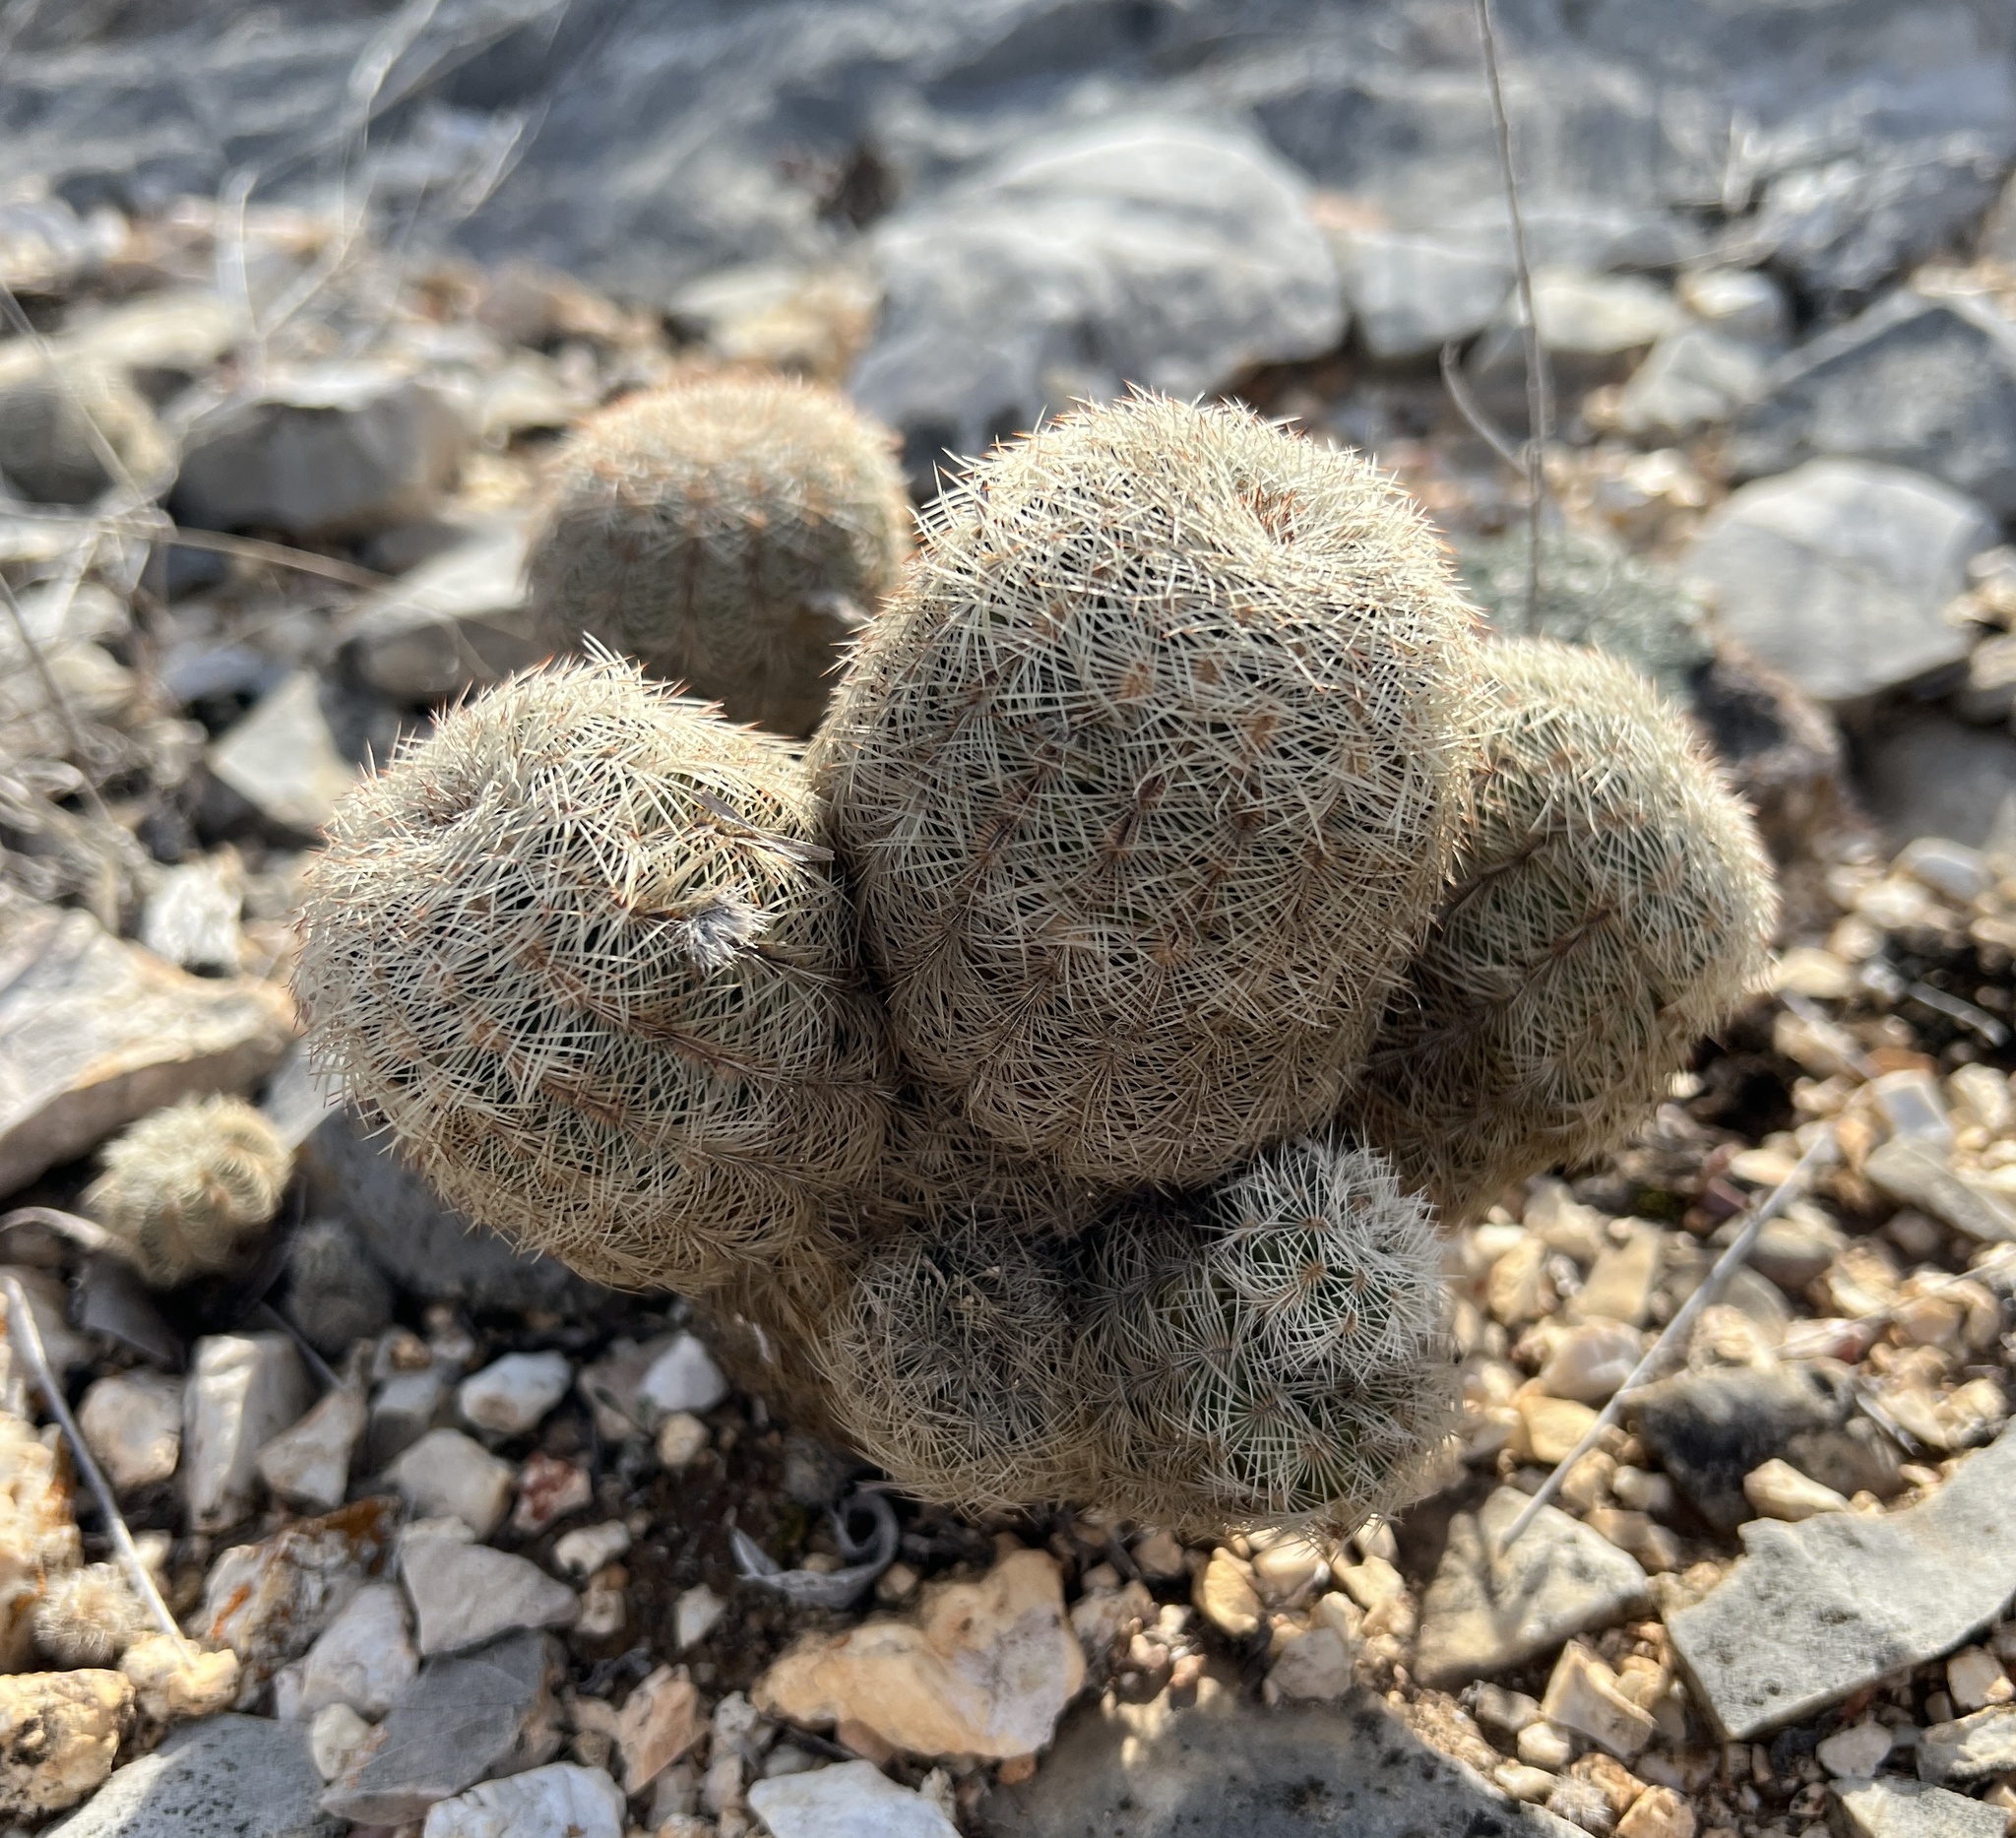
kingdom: Plantae
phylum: Tracheophyta
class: Magnoliopsida
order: Caryophyllales
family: Cactaceae
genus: Echinocereus
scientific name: Echinocereus reichenbachii
